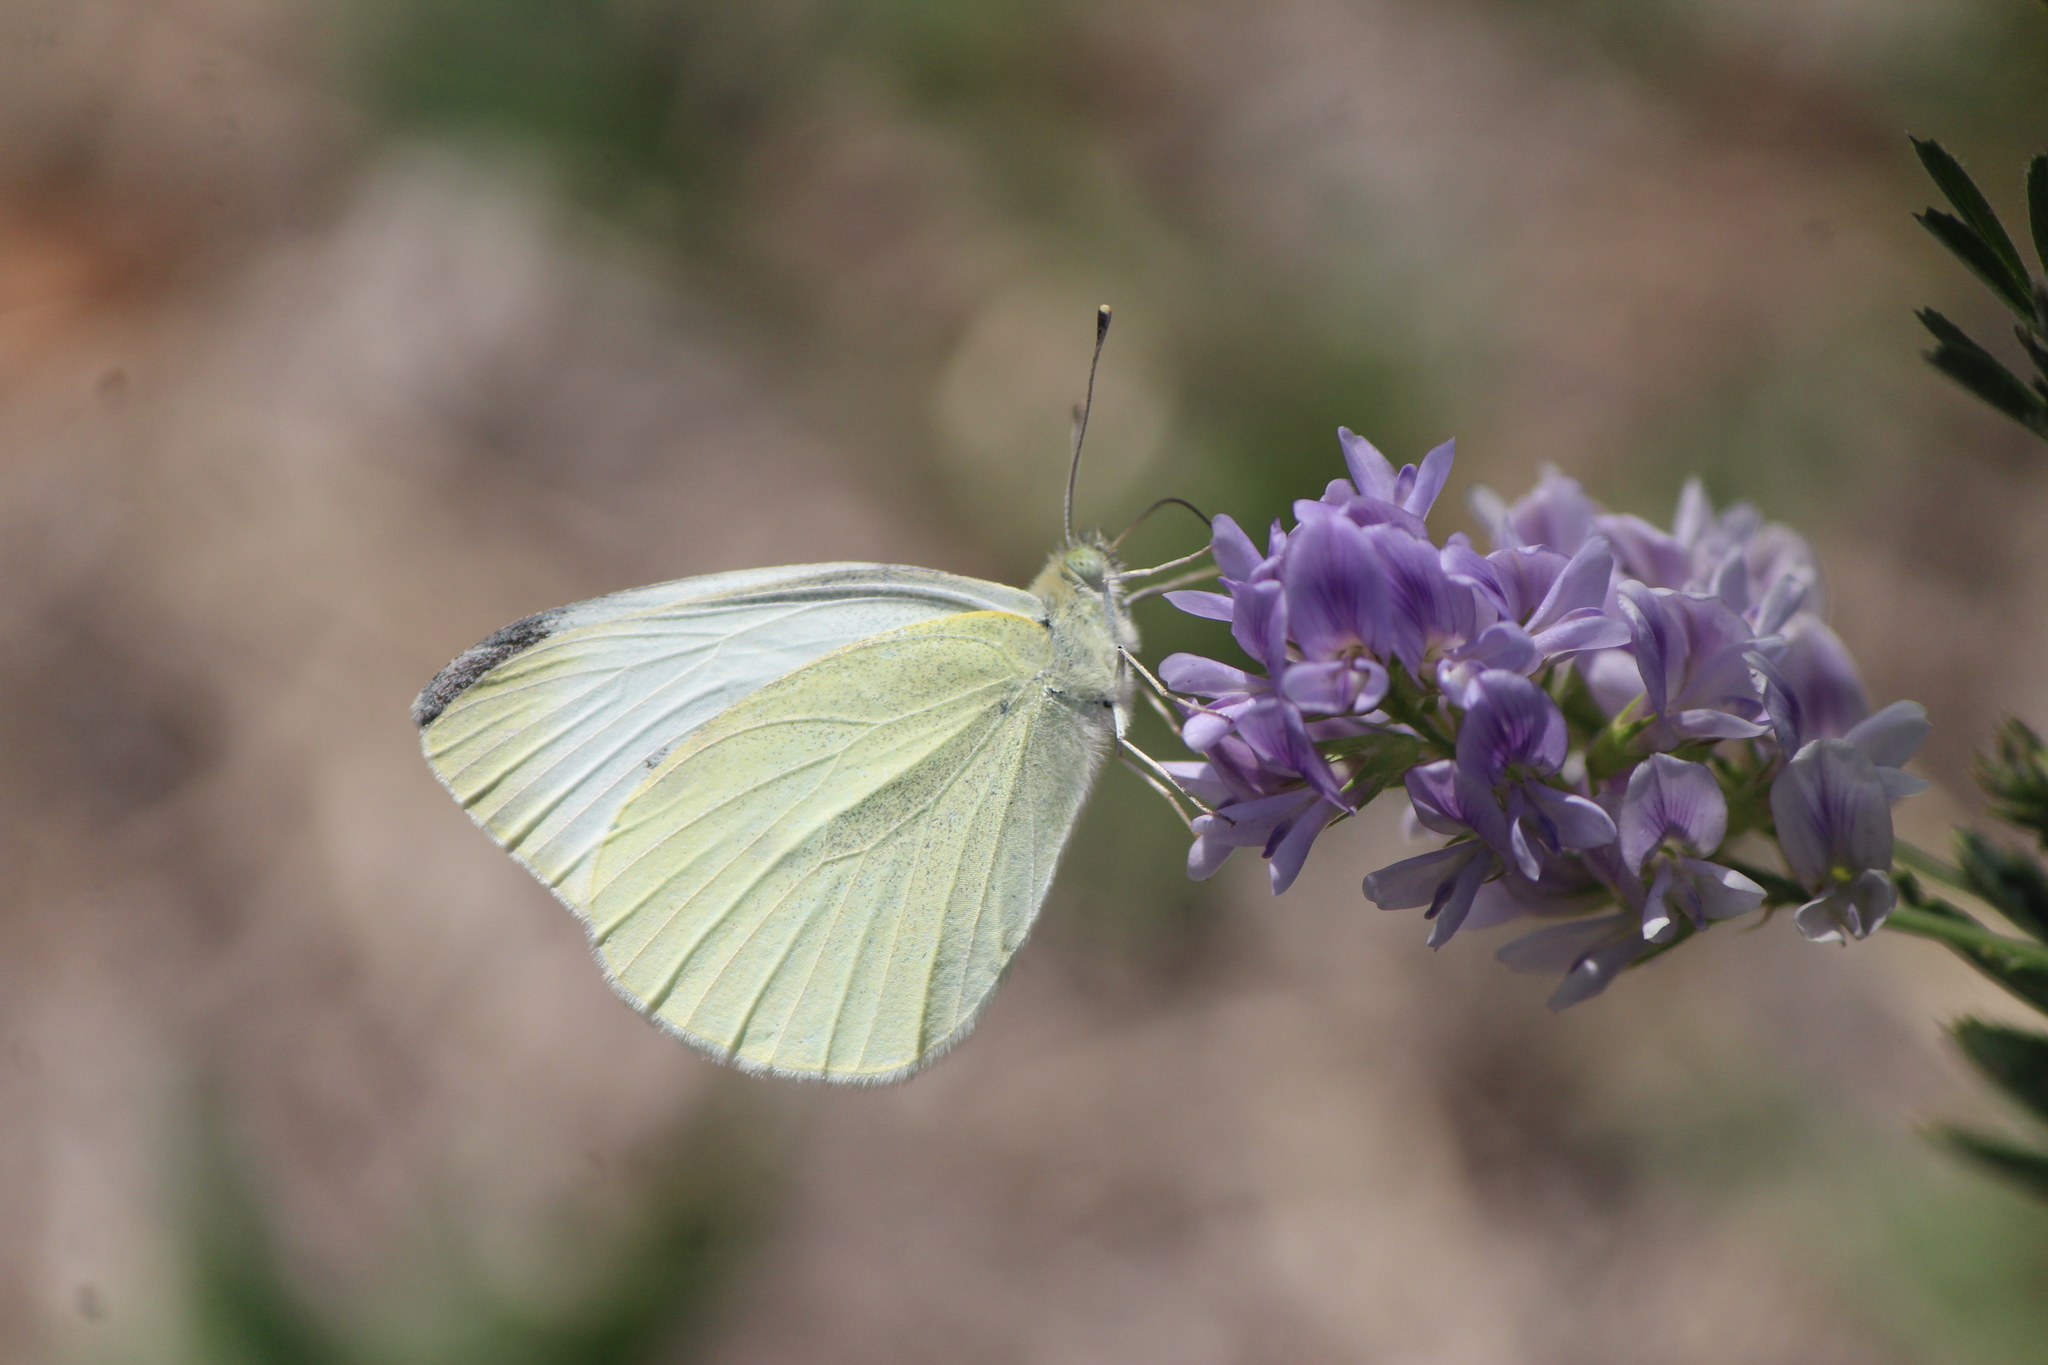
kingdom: Animalia
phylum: Arthropoda
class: Insecta
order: Lepidoptera
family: Pieridae
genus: Pieris
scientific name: Pieris rapae
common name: Small white
